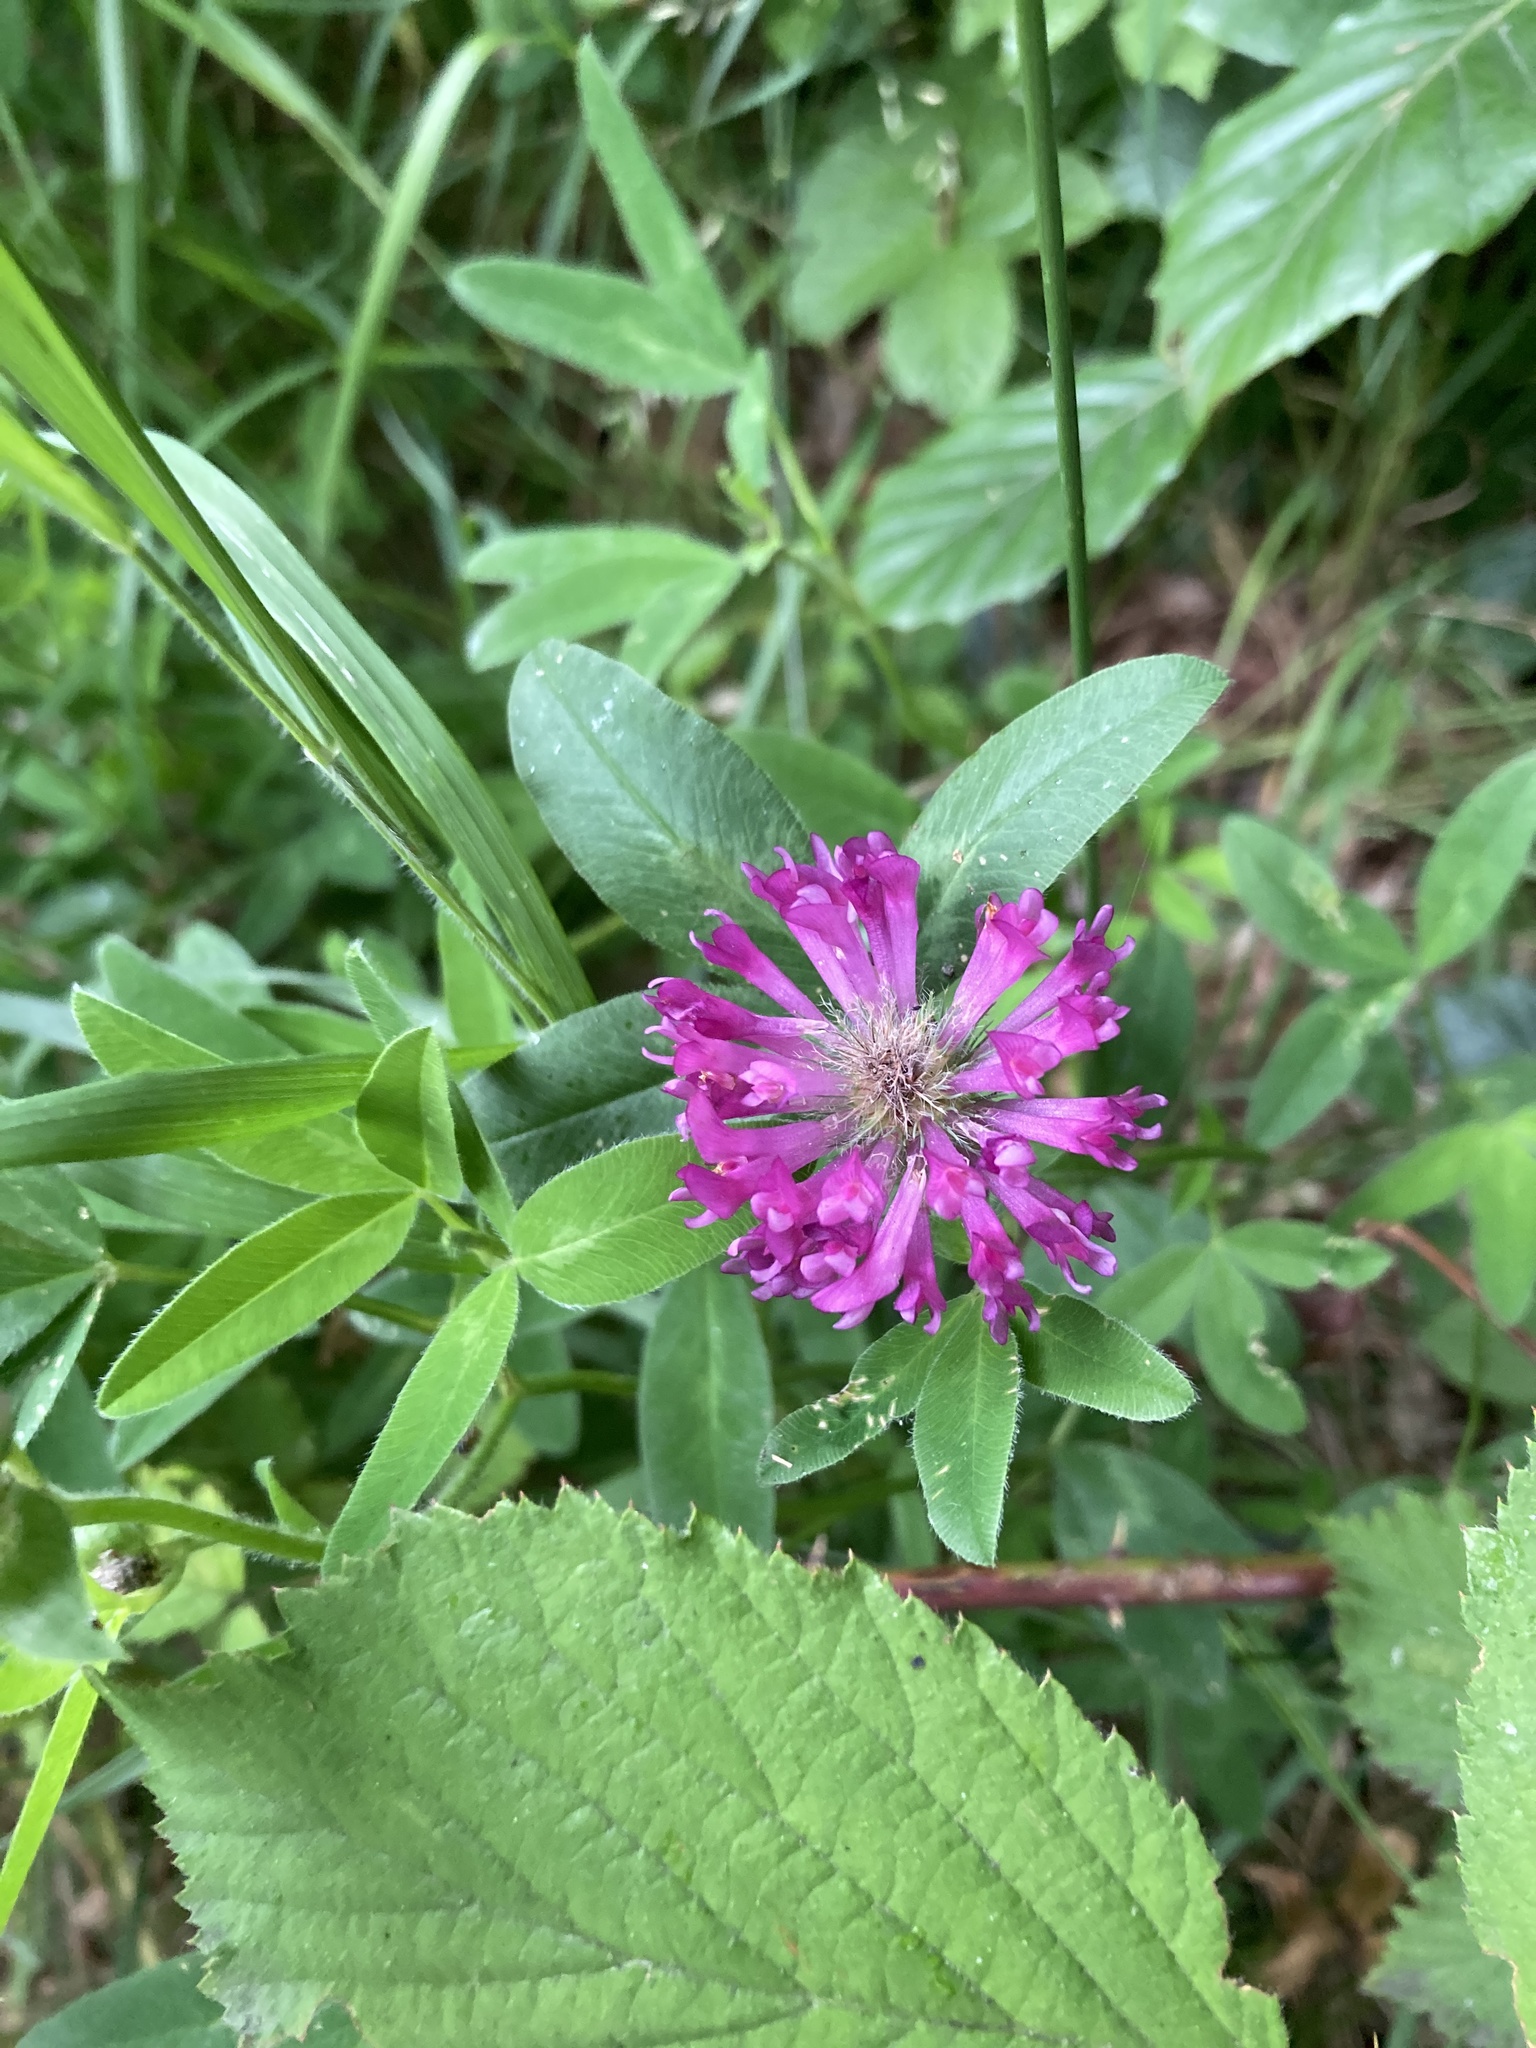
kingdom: Plantae
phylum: Tracheophyta
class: Magnoliopsida
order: Fabales
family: Fabaceae
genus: Trifolium
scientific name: Trifolium medium
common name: Zigzag clover
